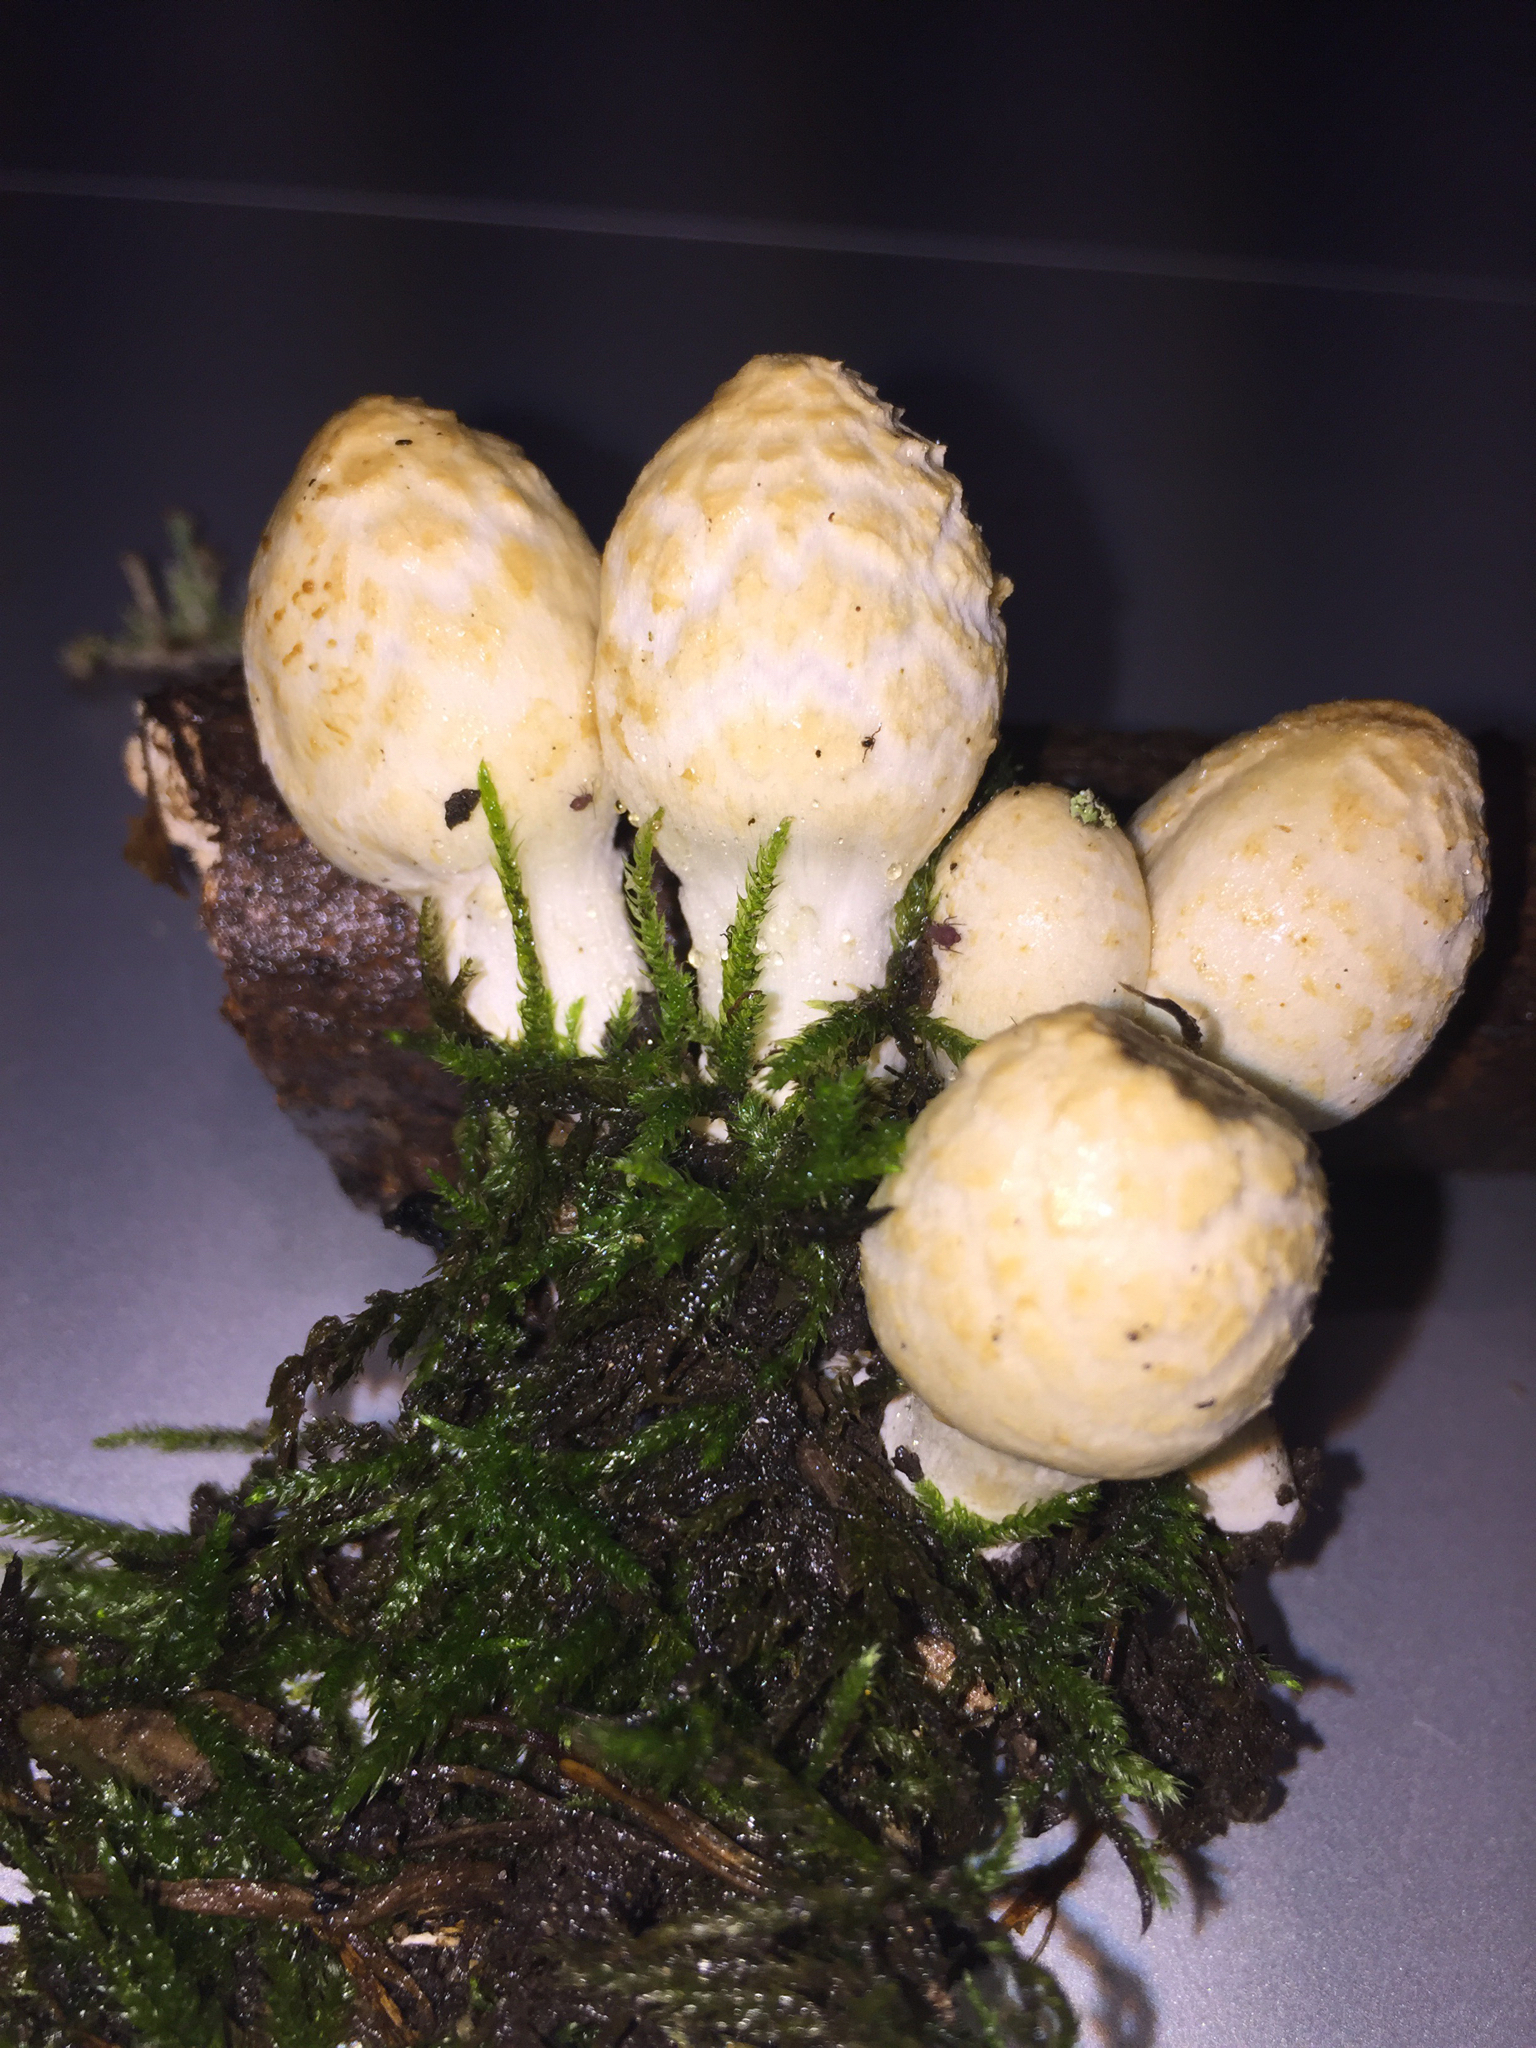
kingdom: Fungi
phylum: Basidiomycota
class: Agaricomycetes
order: Agaricales
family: Psathyrellaceae
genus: Coprinopsis
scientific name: Coprinopsis variegata
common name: Scaly ink cap
